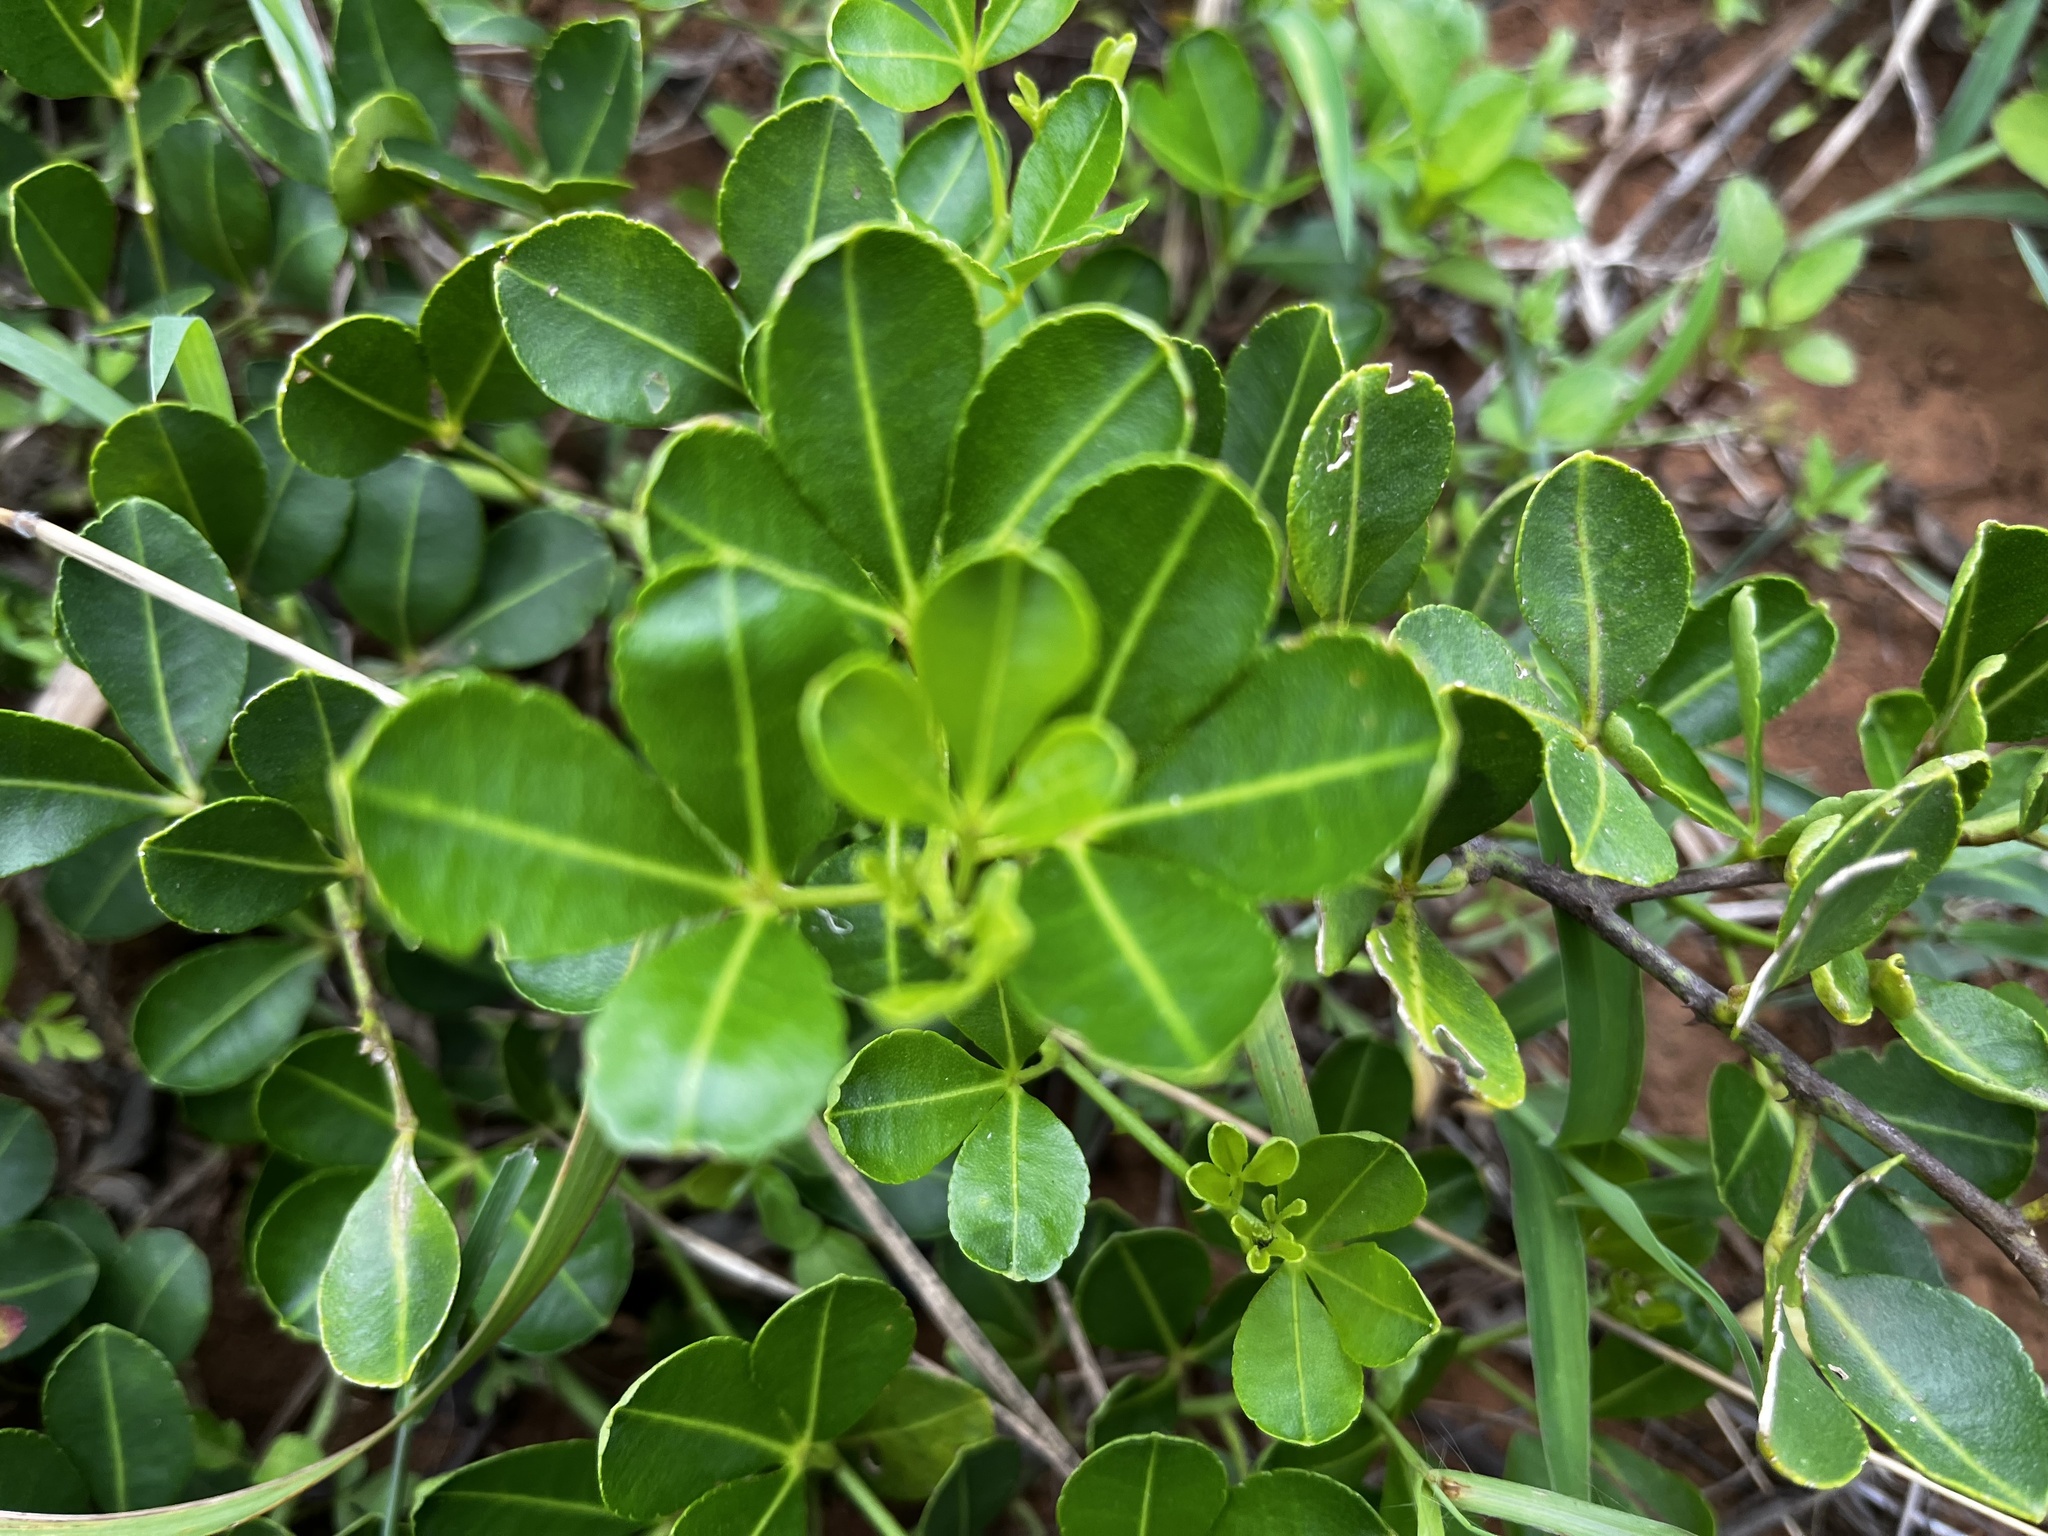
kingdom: Plantae
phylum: Tracheophyta
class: Magnoliopsida
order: Sapindales
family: Rutaceae
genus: Zanthoxylum
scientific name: Zanthoxylum dimorphophyllum
